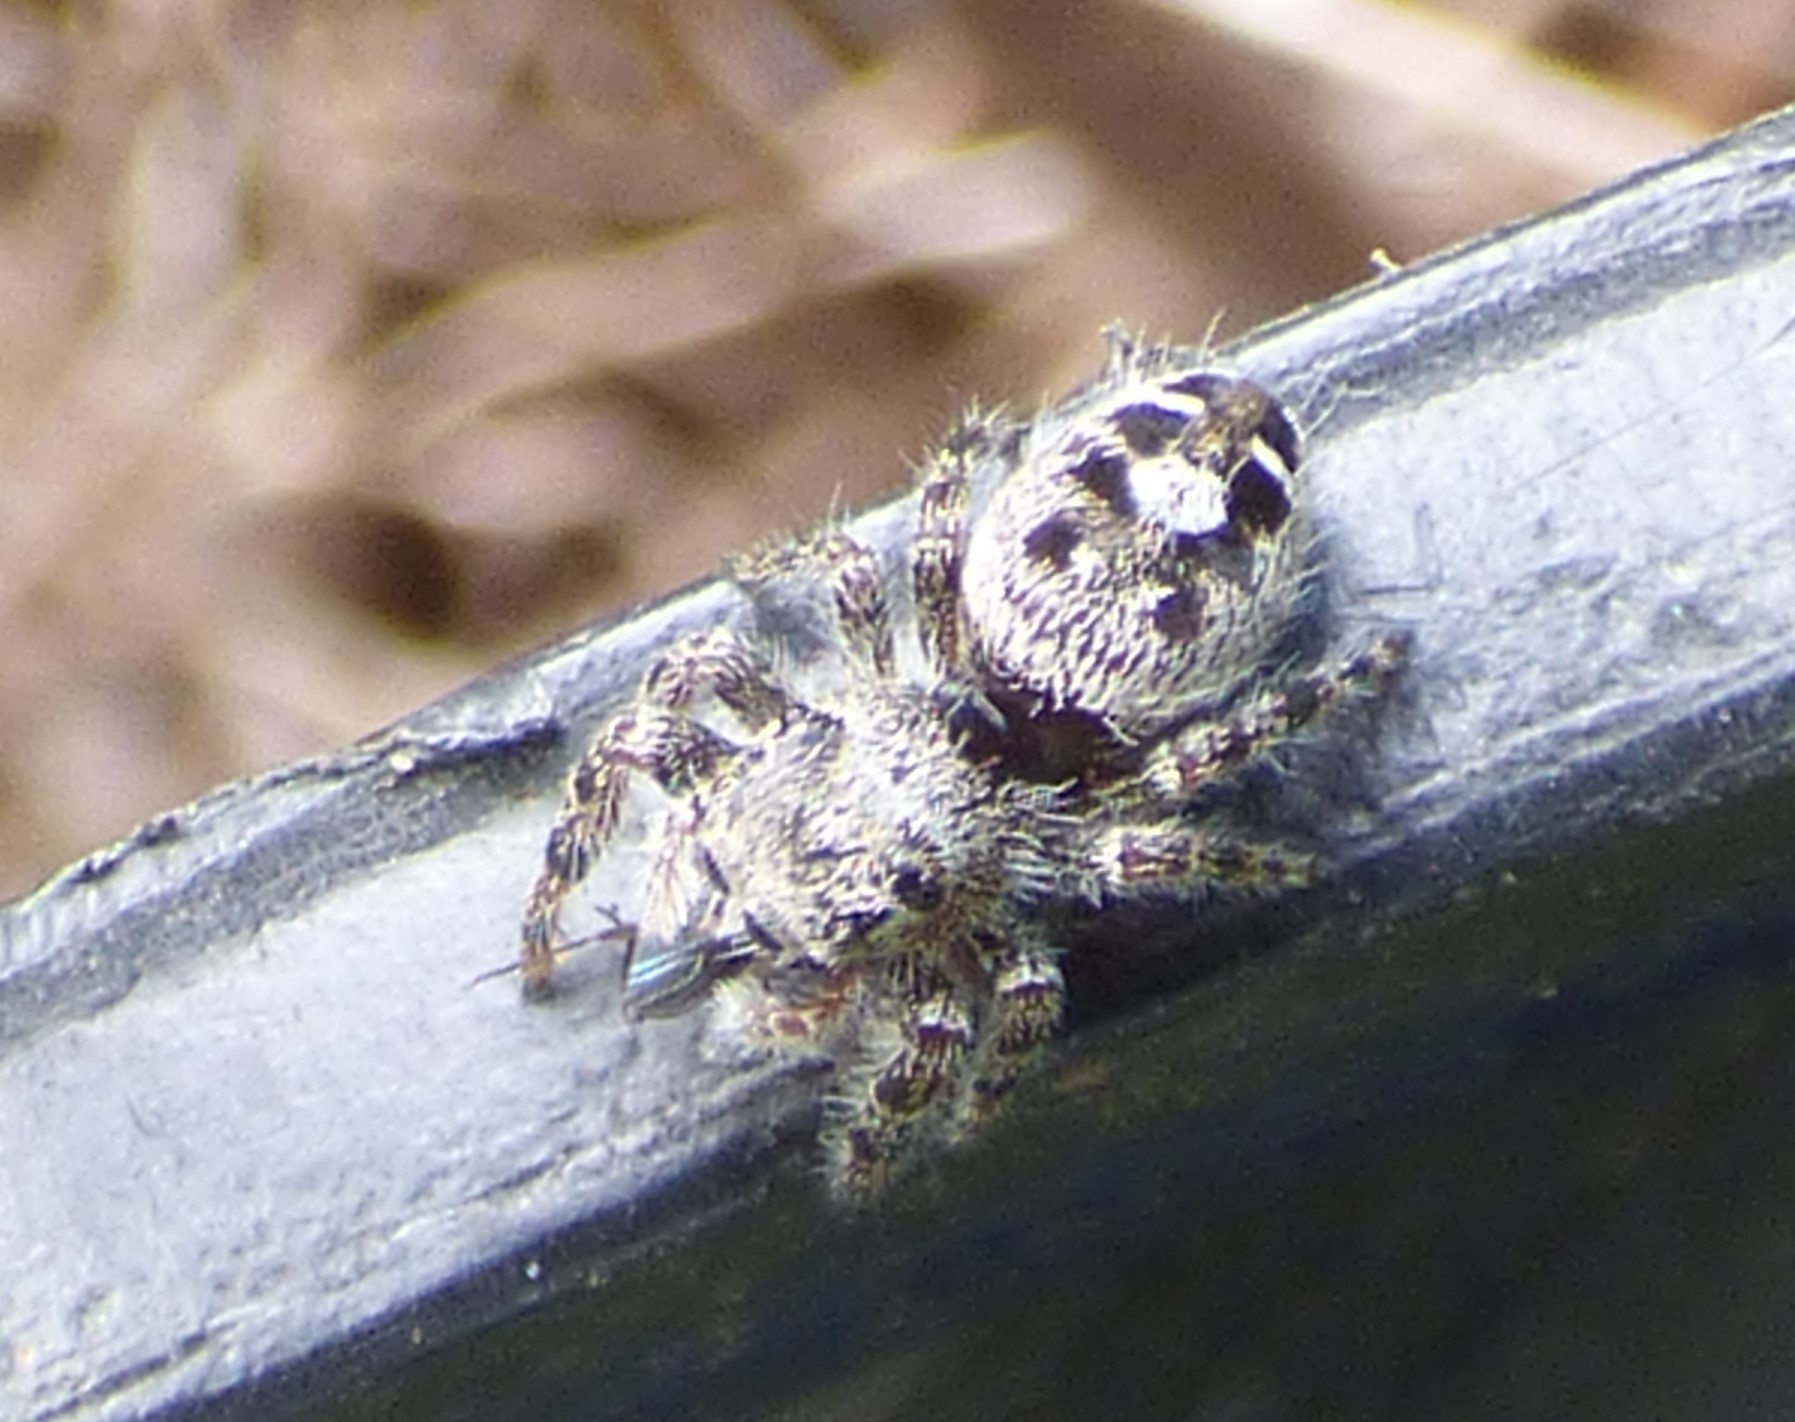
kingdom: Animalia
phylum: Arthropoda
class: Arachnida
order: Araneae
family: Salticidae
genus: Phidippus
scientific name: Phidippus putnami
